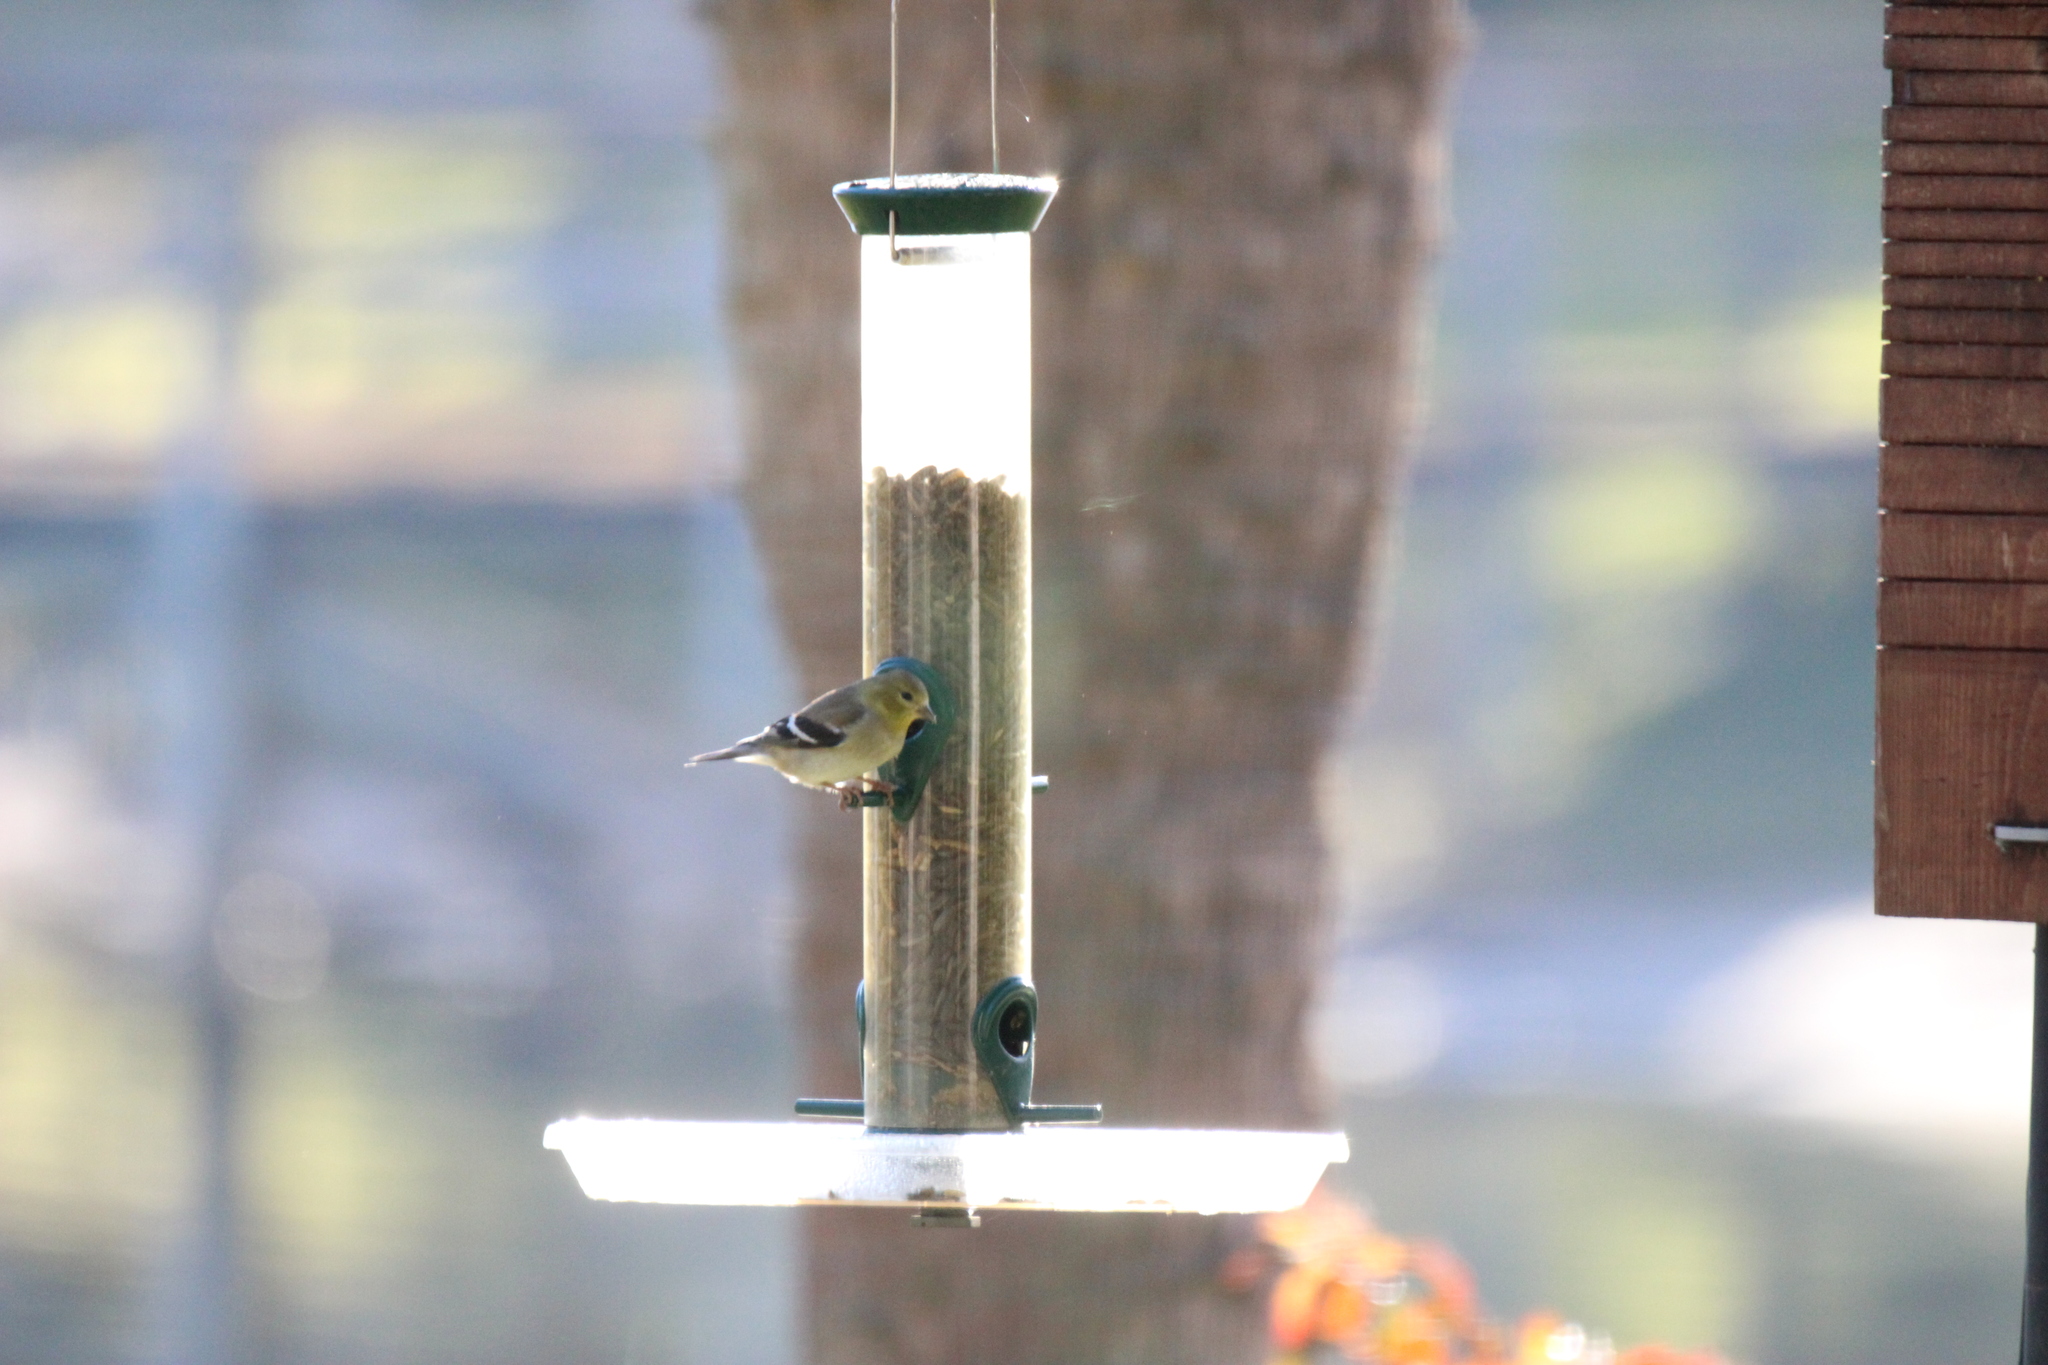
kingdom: Animalia
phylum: Chordata
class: Aves
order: Passeriformes
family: Fringillidae
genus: Spinus
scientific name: Spinus tristis
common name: American goldfinch
